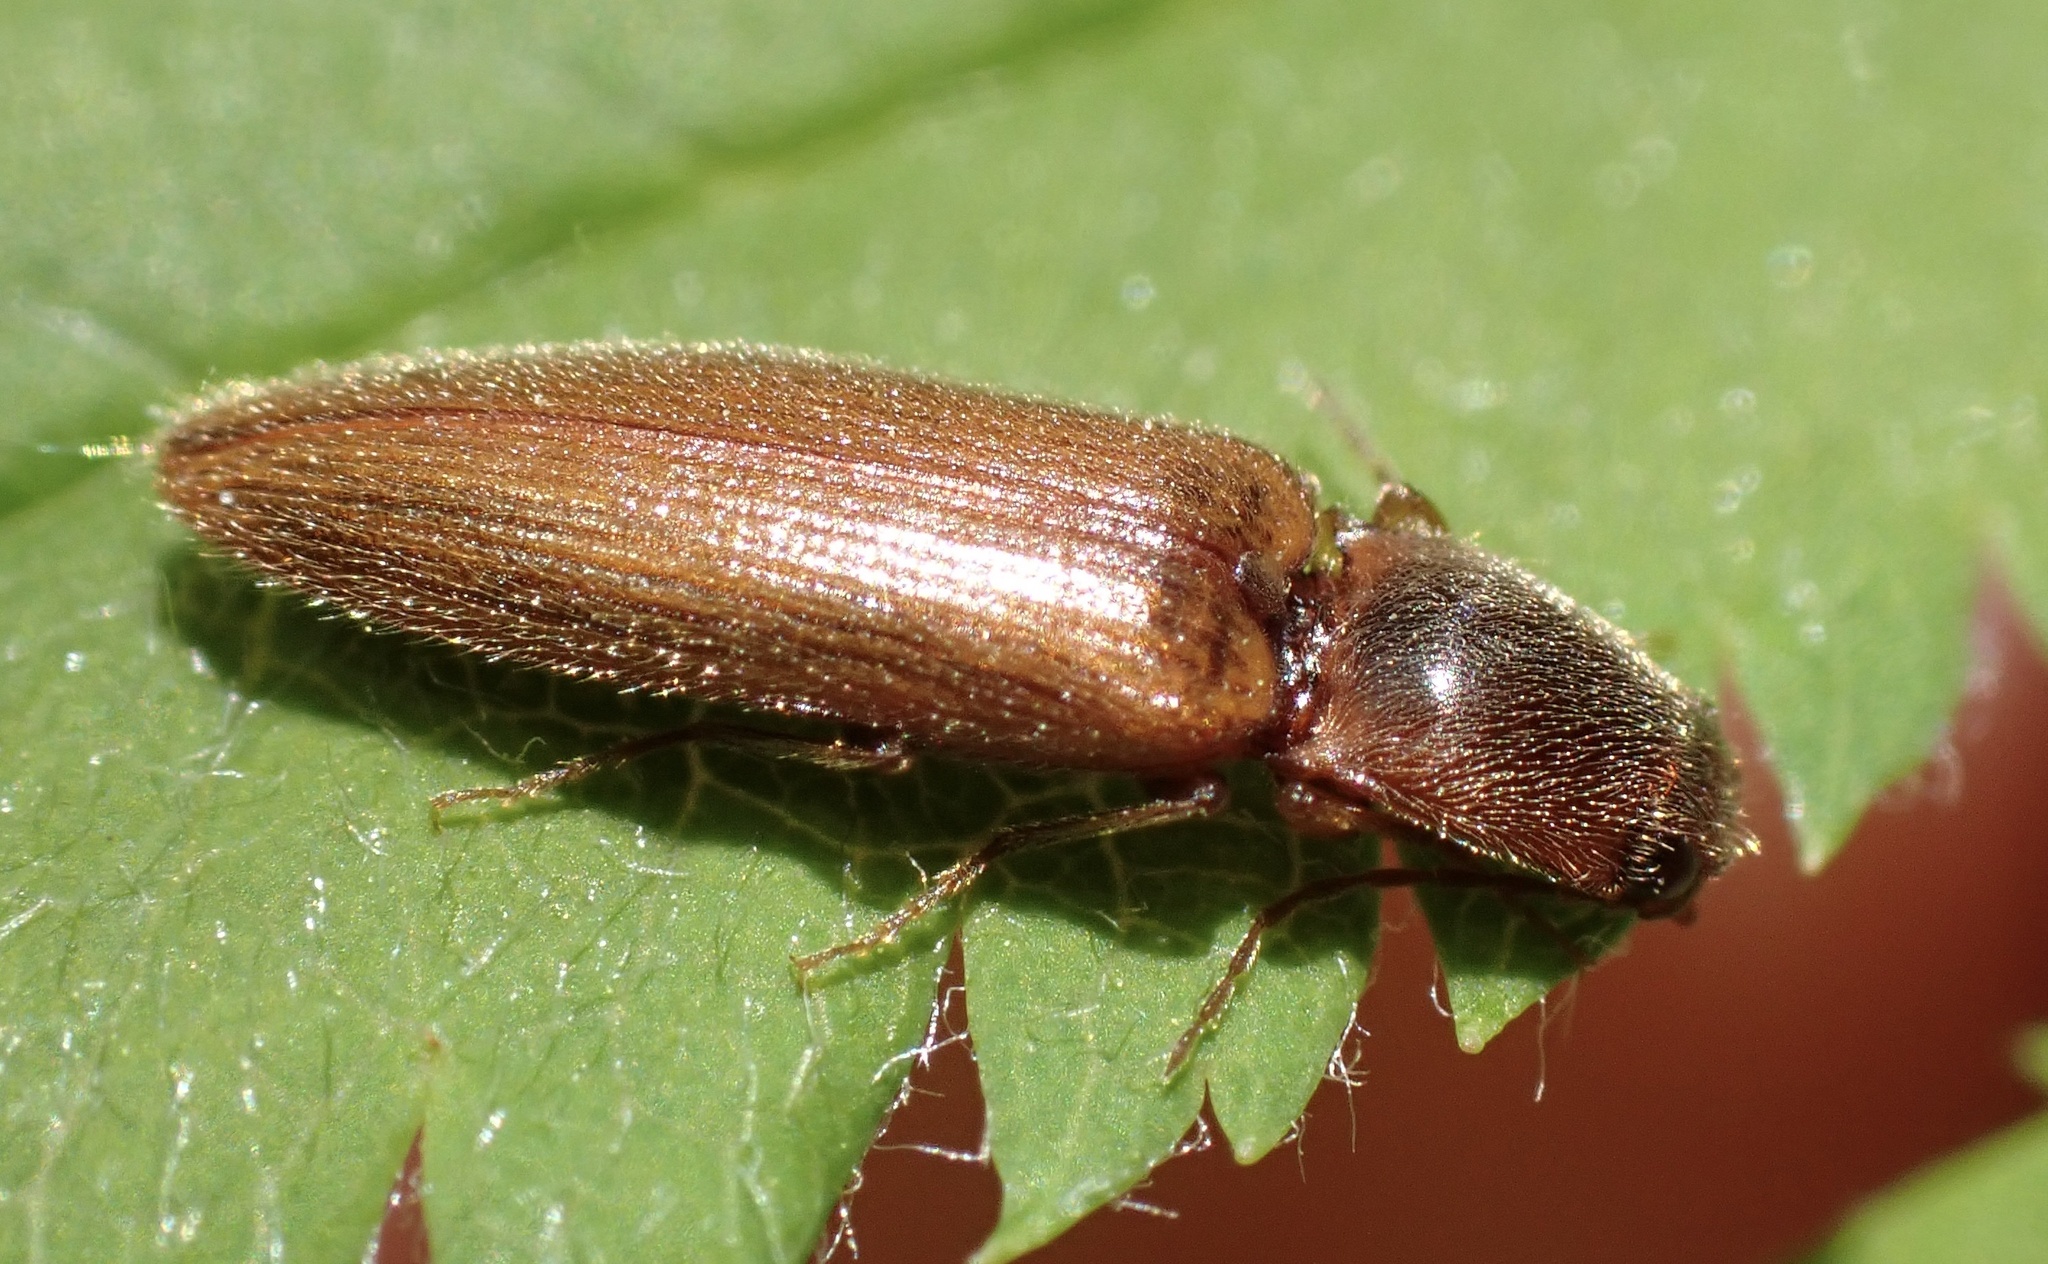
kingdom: Animalia
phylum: Arthropoda
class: Insecta
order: Coleoptera
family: Elateridae
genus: Athous
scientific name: Athous subfuscus
